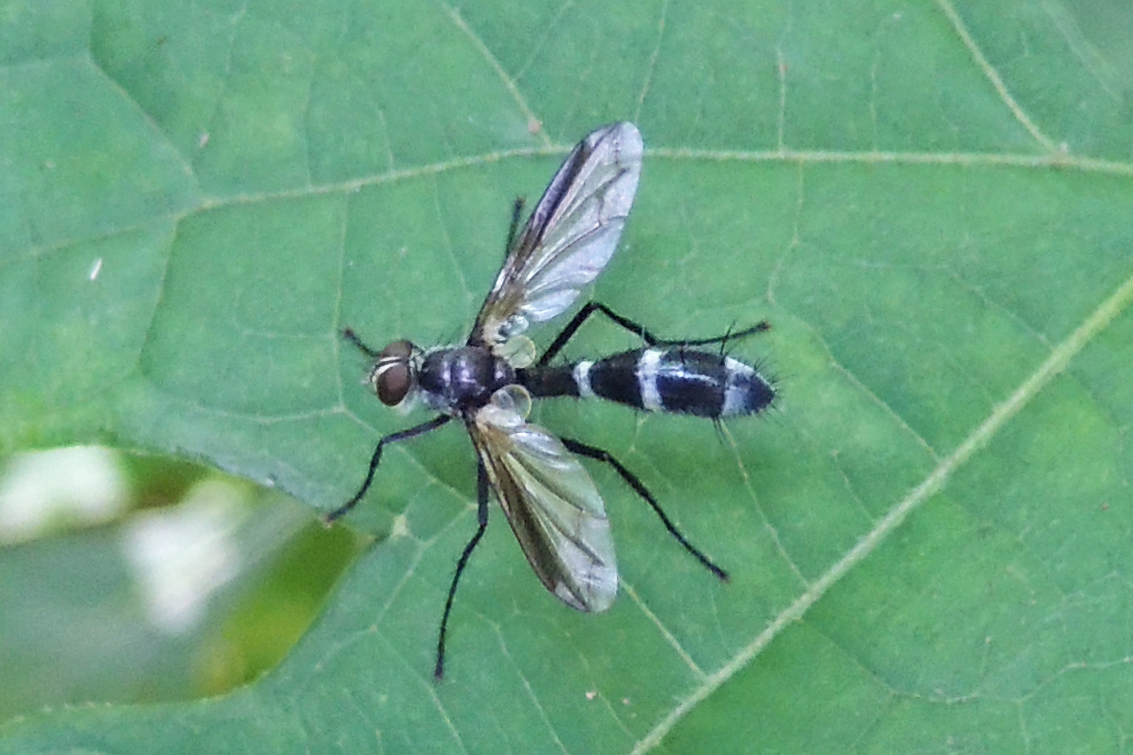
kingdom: Animalia
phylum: Arthropoda
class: Insecta
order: Diptera
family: Tachinidae
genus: Cordyligaster
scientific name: Cordyligaster septentrionalis
